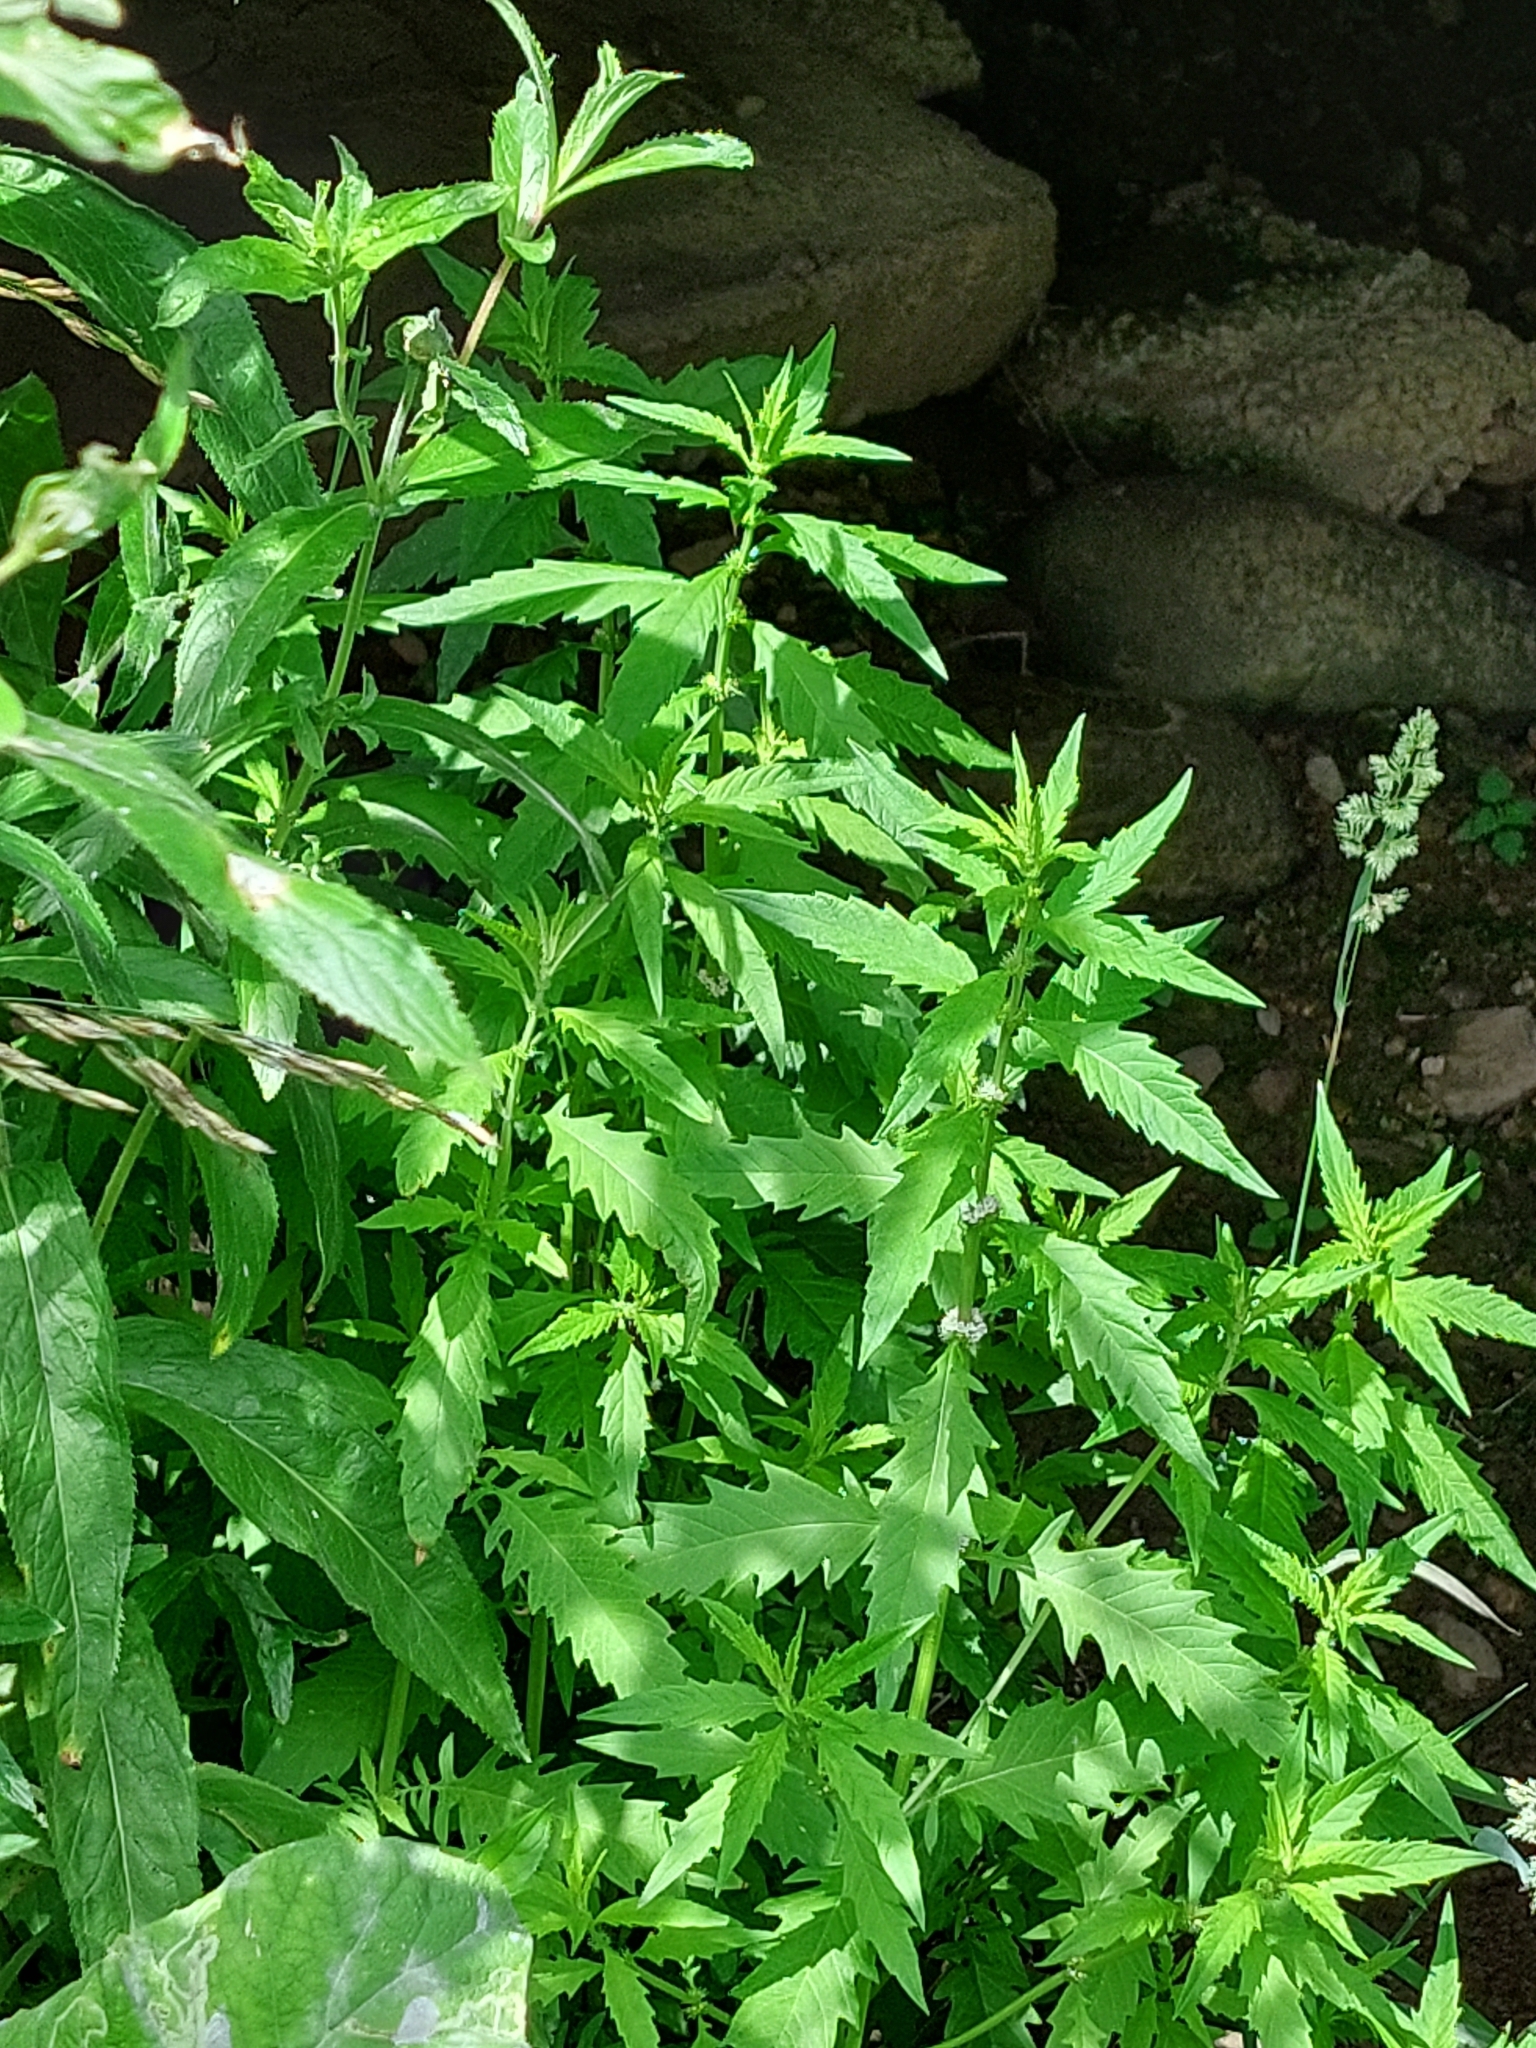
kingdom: Plantae
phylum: Tracheophyta
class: Magnoliopsida
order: Lamiales
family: Lamiaceae
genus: Lycopus
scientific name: Lycopus europaeus
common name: European bugleweed
